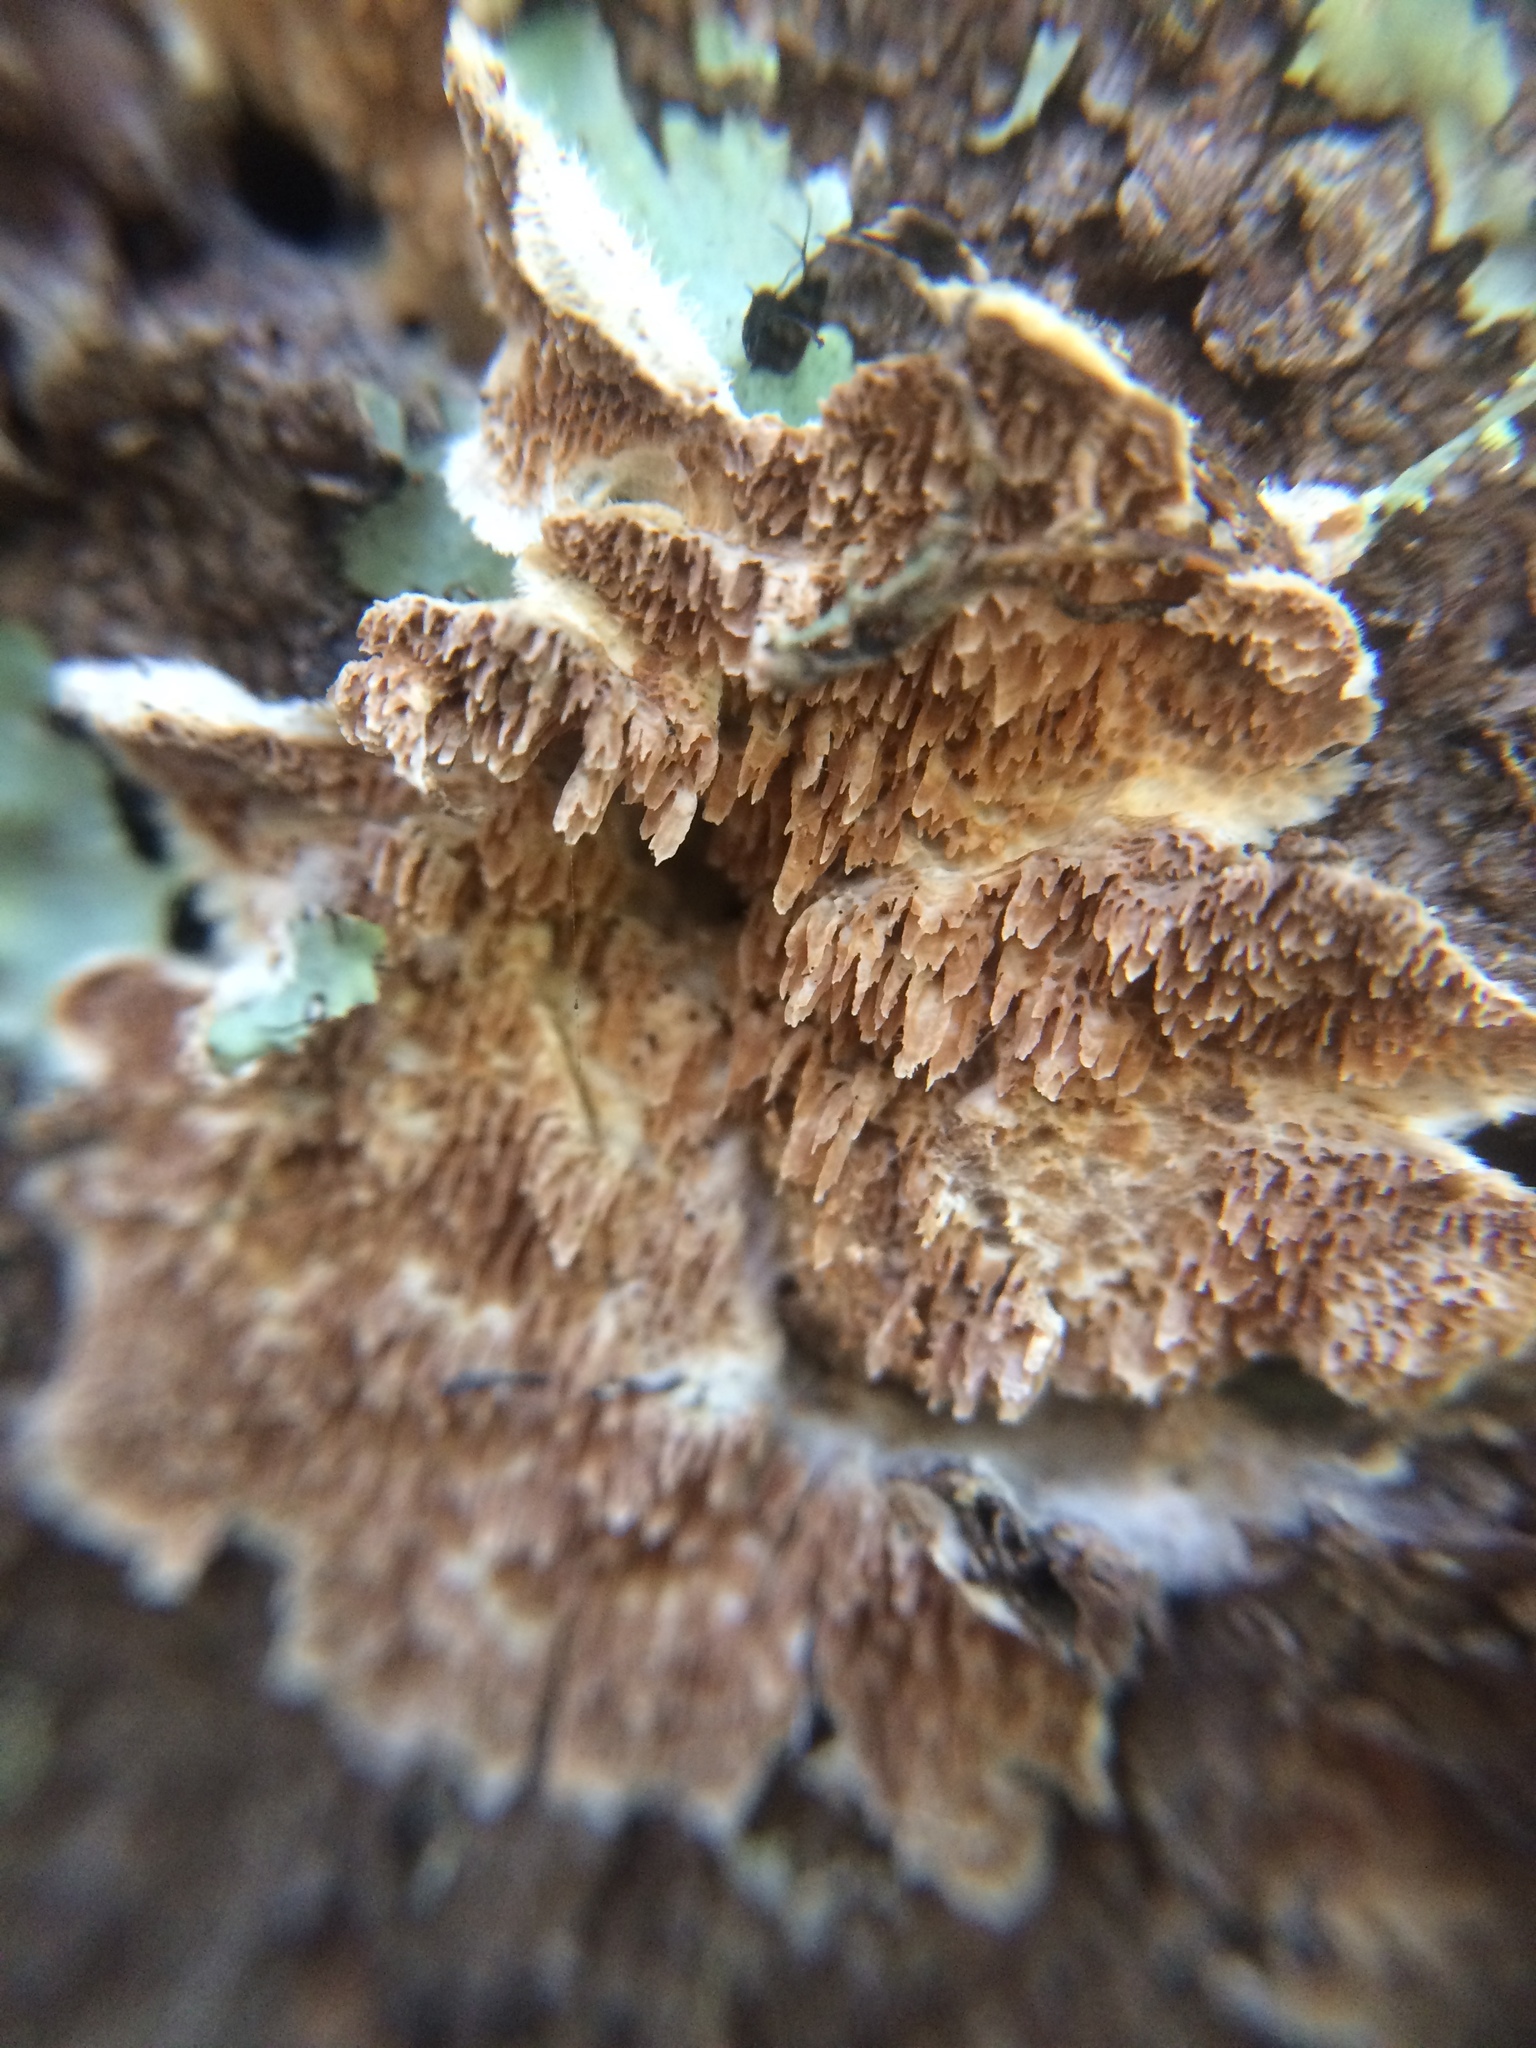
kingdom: Fungi
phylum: Basidiomycota
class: Agaricomycetes
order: Hymenochaetales
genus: Trichaptum
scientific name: Trichaptum abietinum
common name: Purplepore bracket
